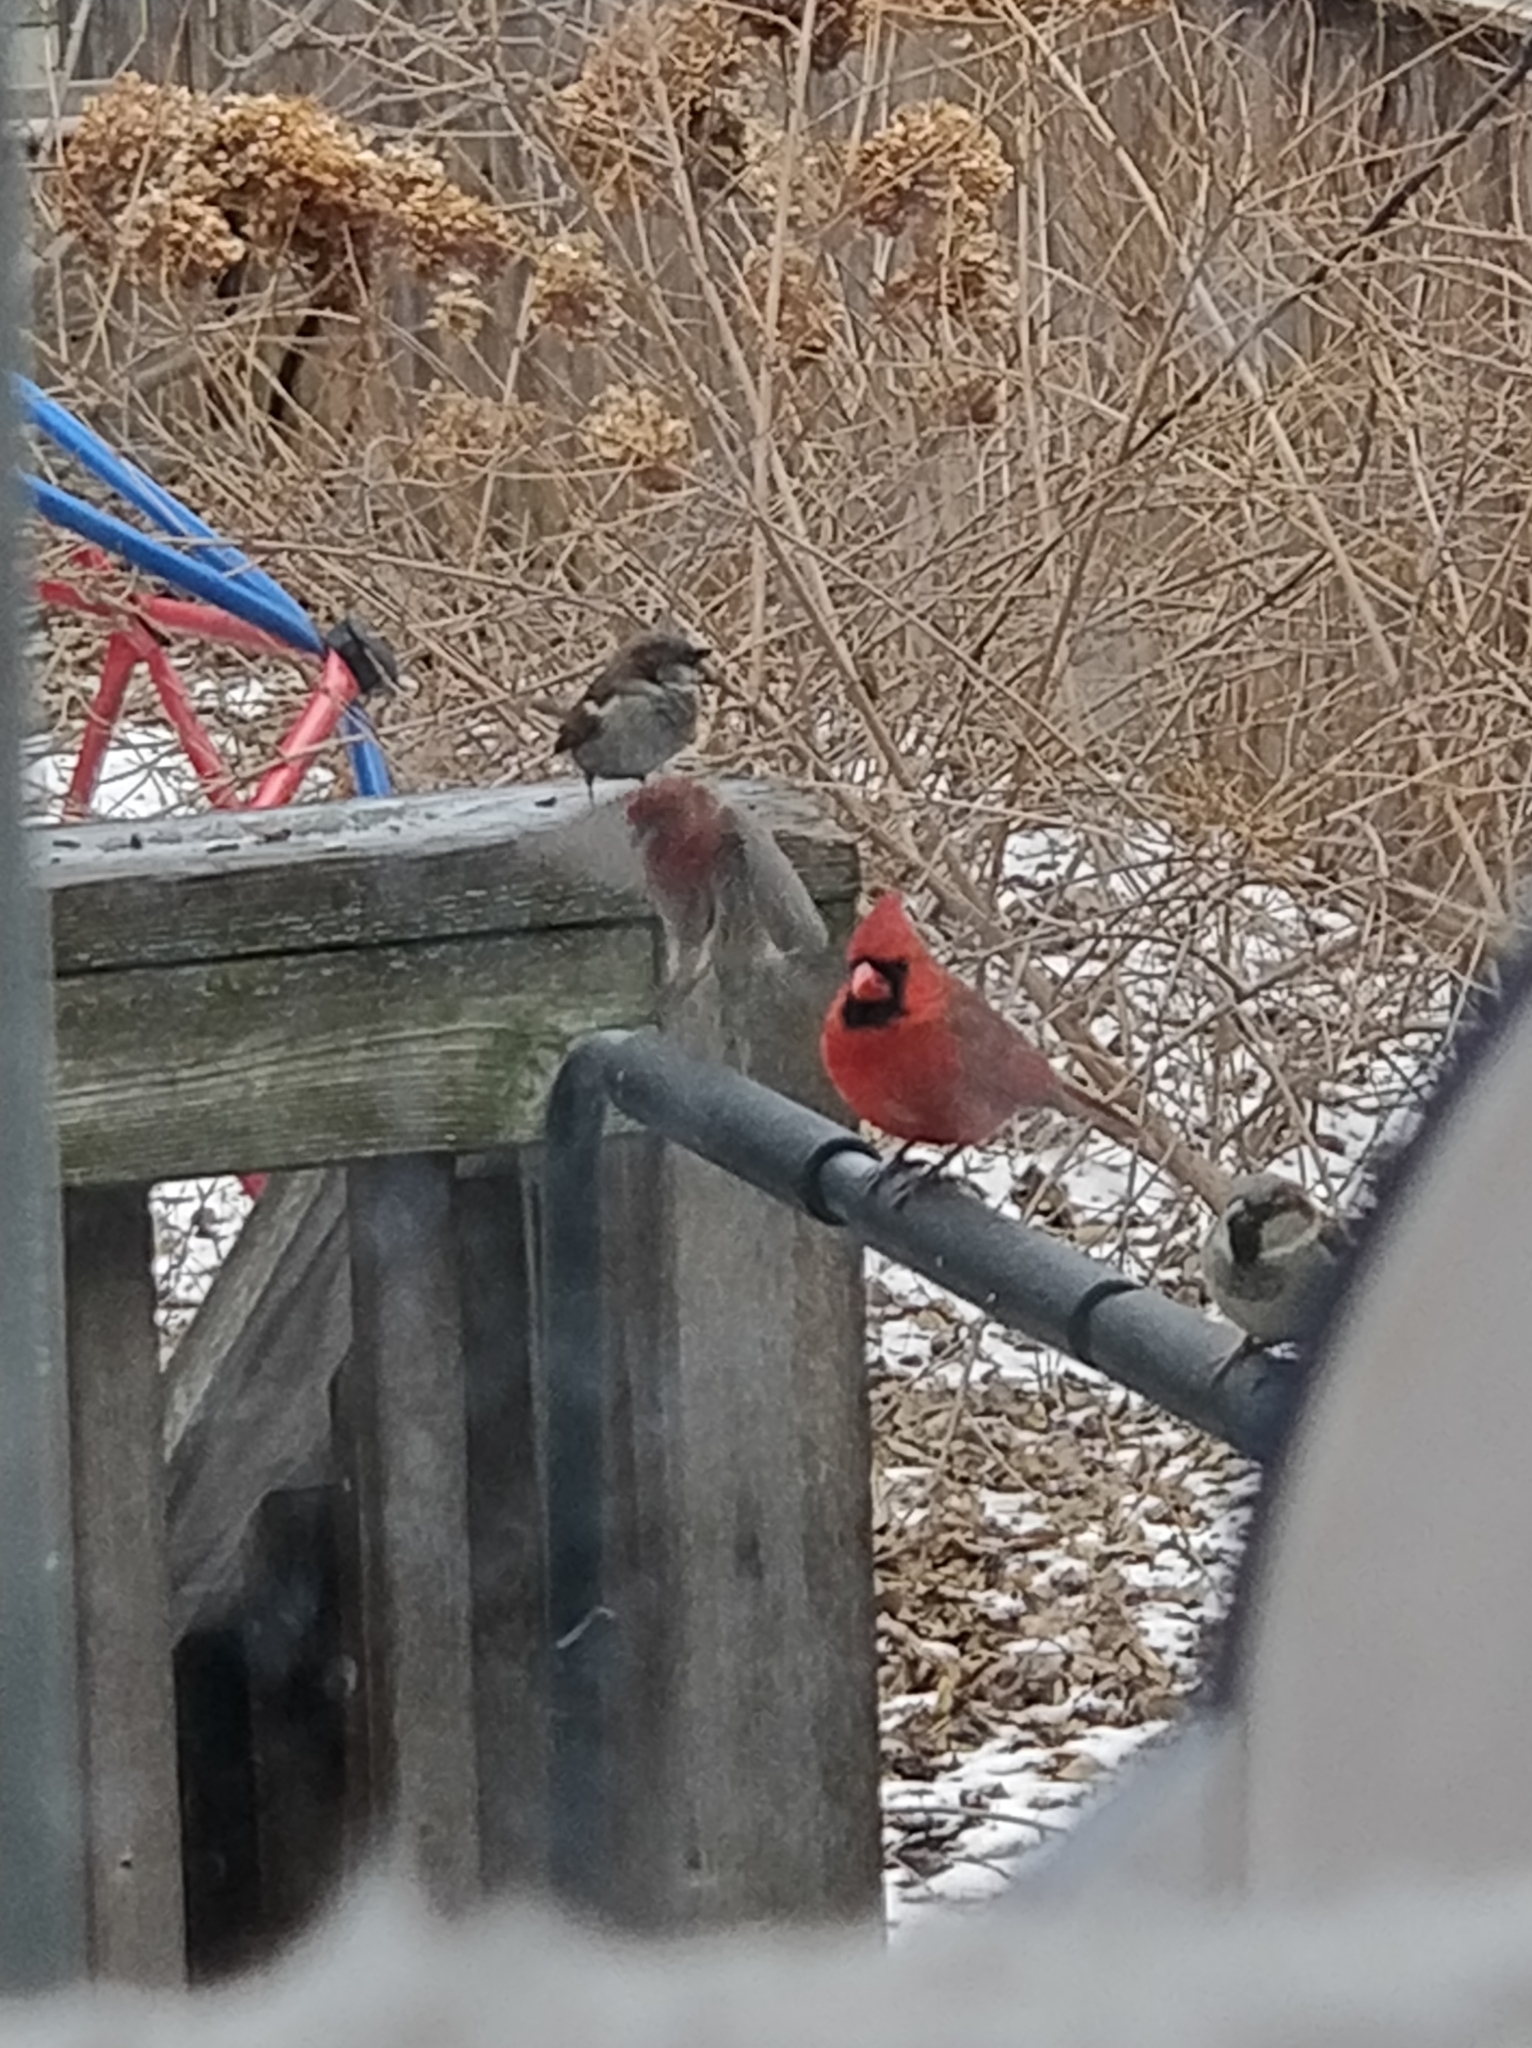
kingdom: Animalia
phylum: Chordata
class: Aves
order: Passeriformes
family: Cardinalidae
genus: Cardinalis
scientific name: Cardinalis cardinalis
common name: Northern cardinal
